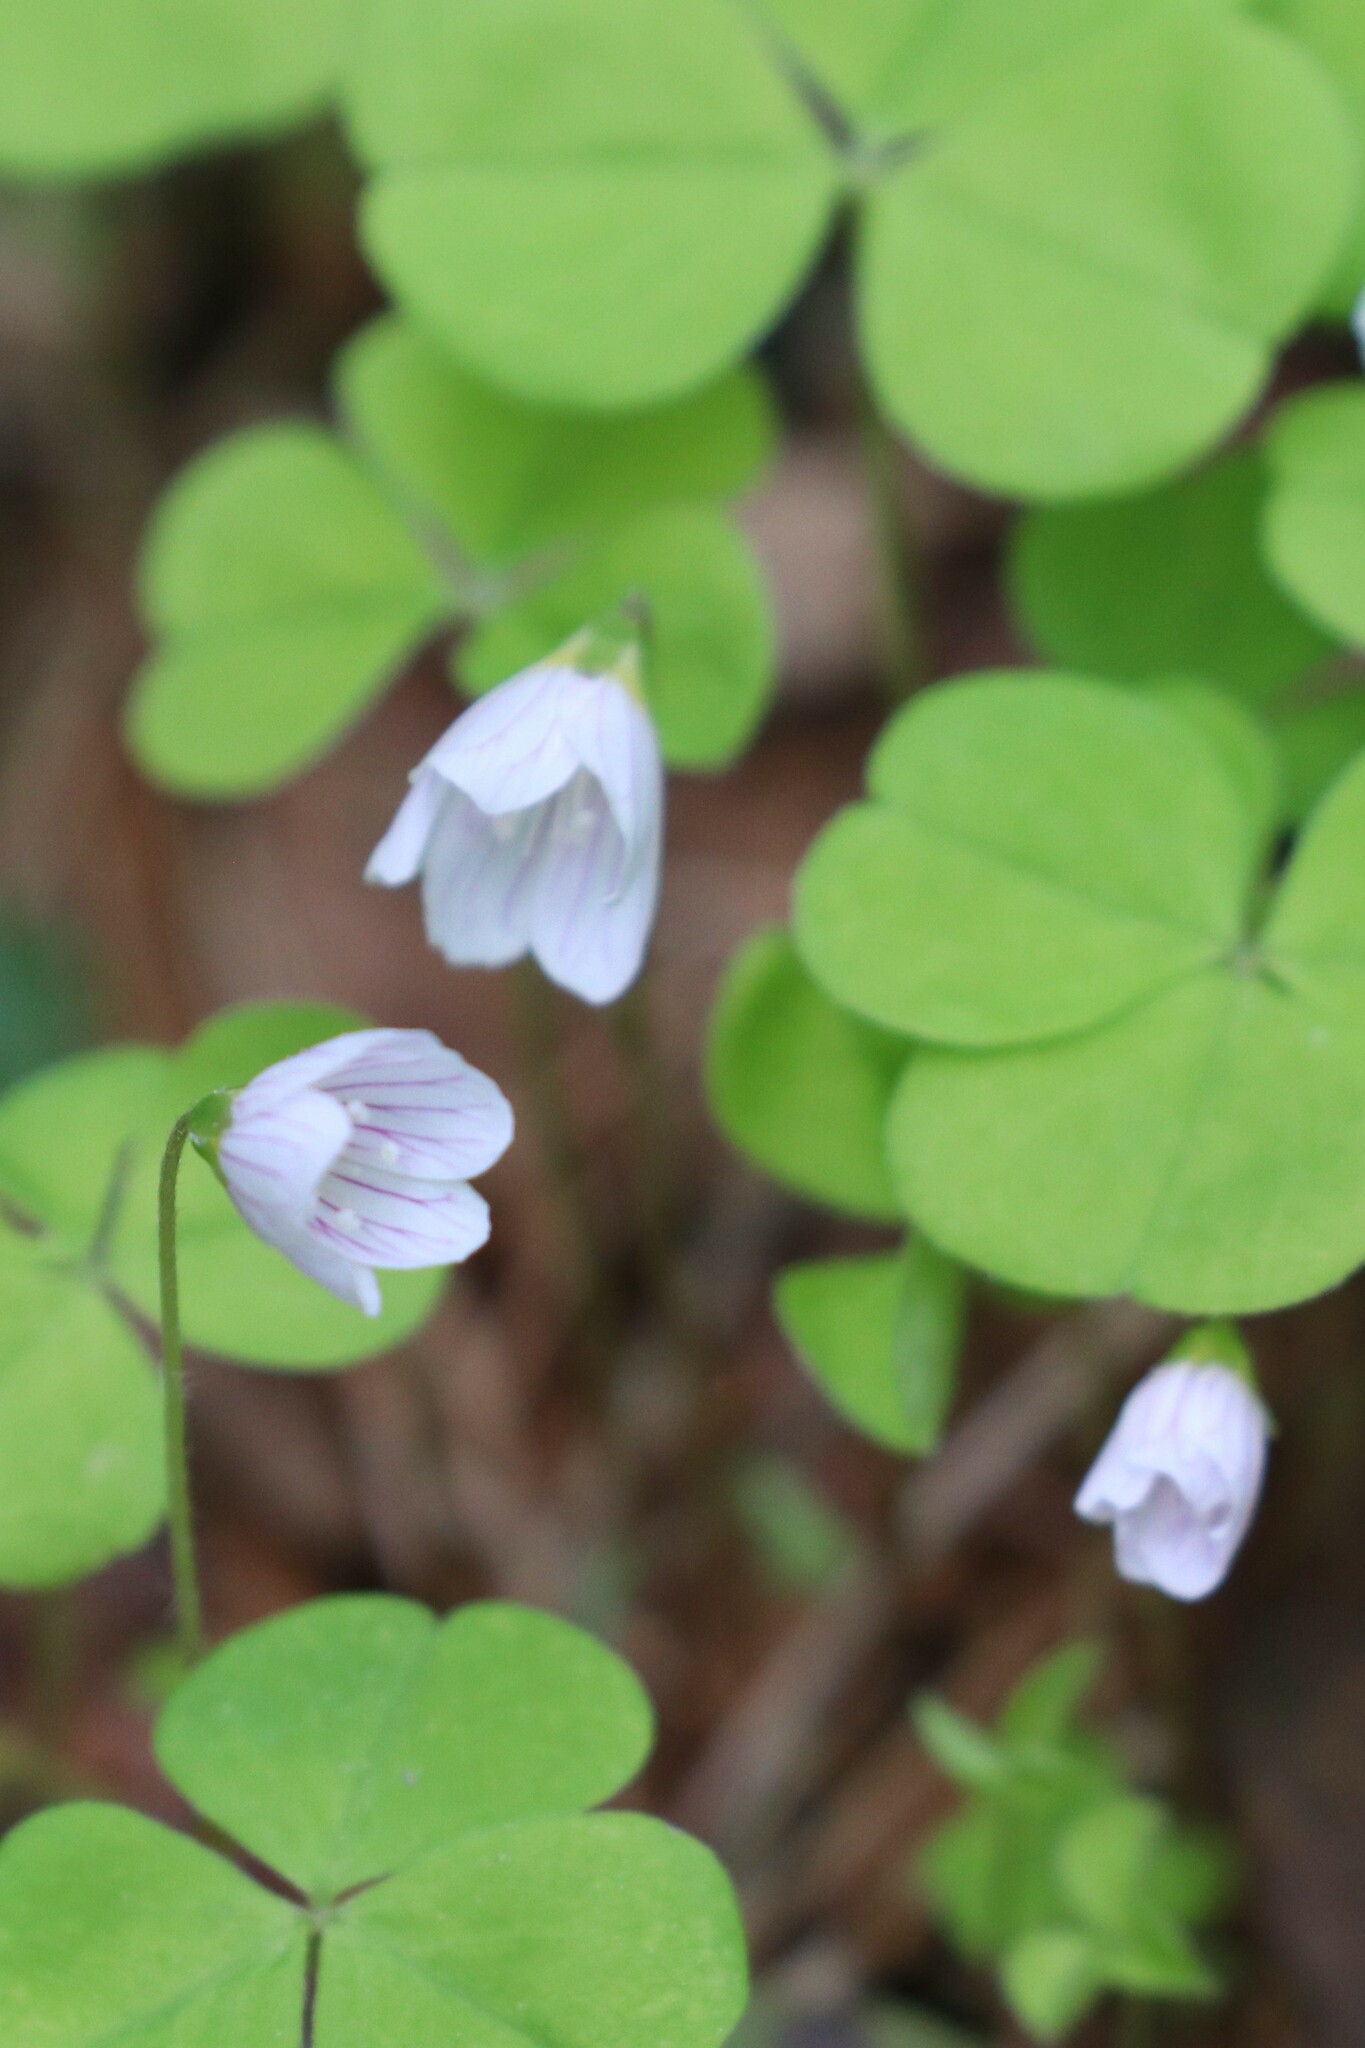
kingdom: Plantae
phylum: Tracheophyta
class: Magnoliopsida
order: Oxalidales
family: Oxalidaceae
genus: Oxalis
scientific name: Oxalis acetosella
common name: Wood-sorrel
